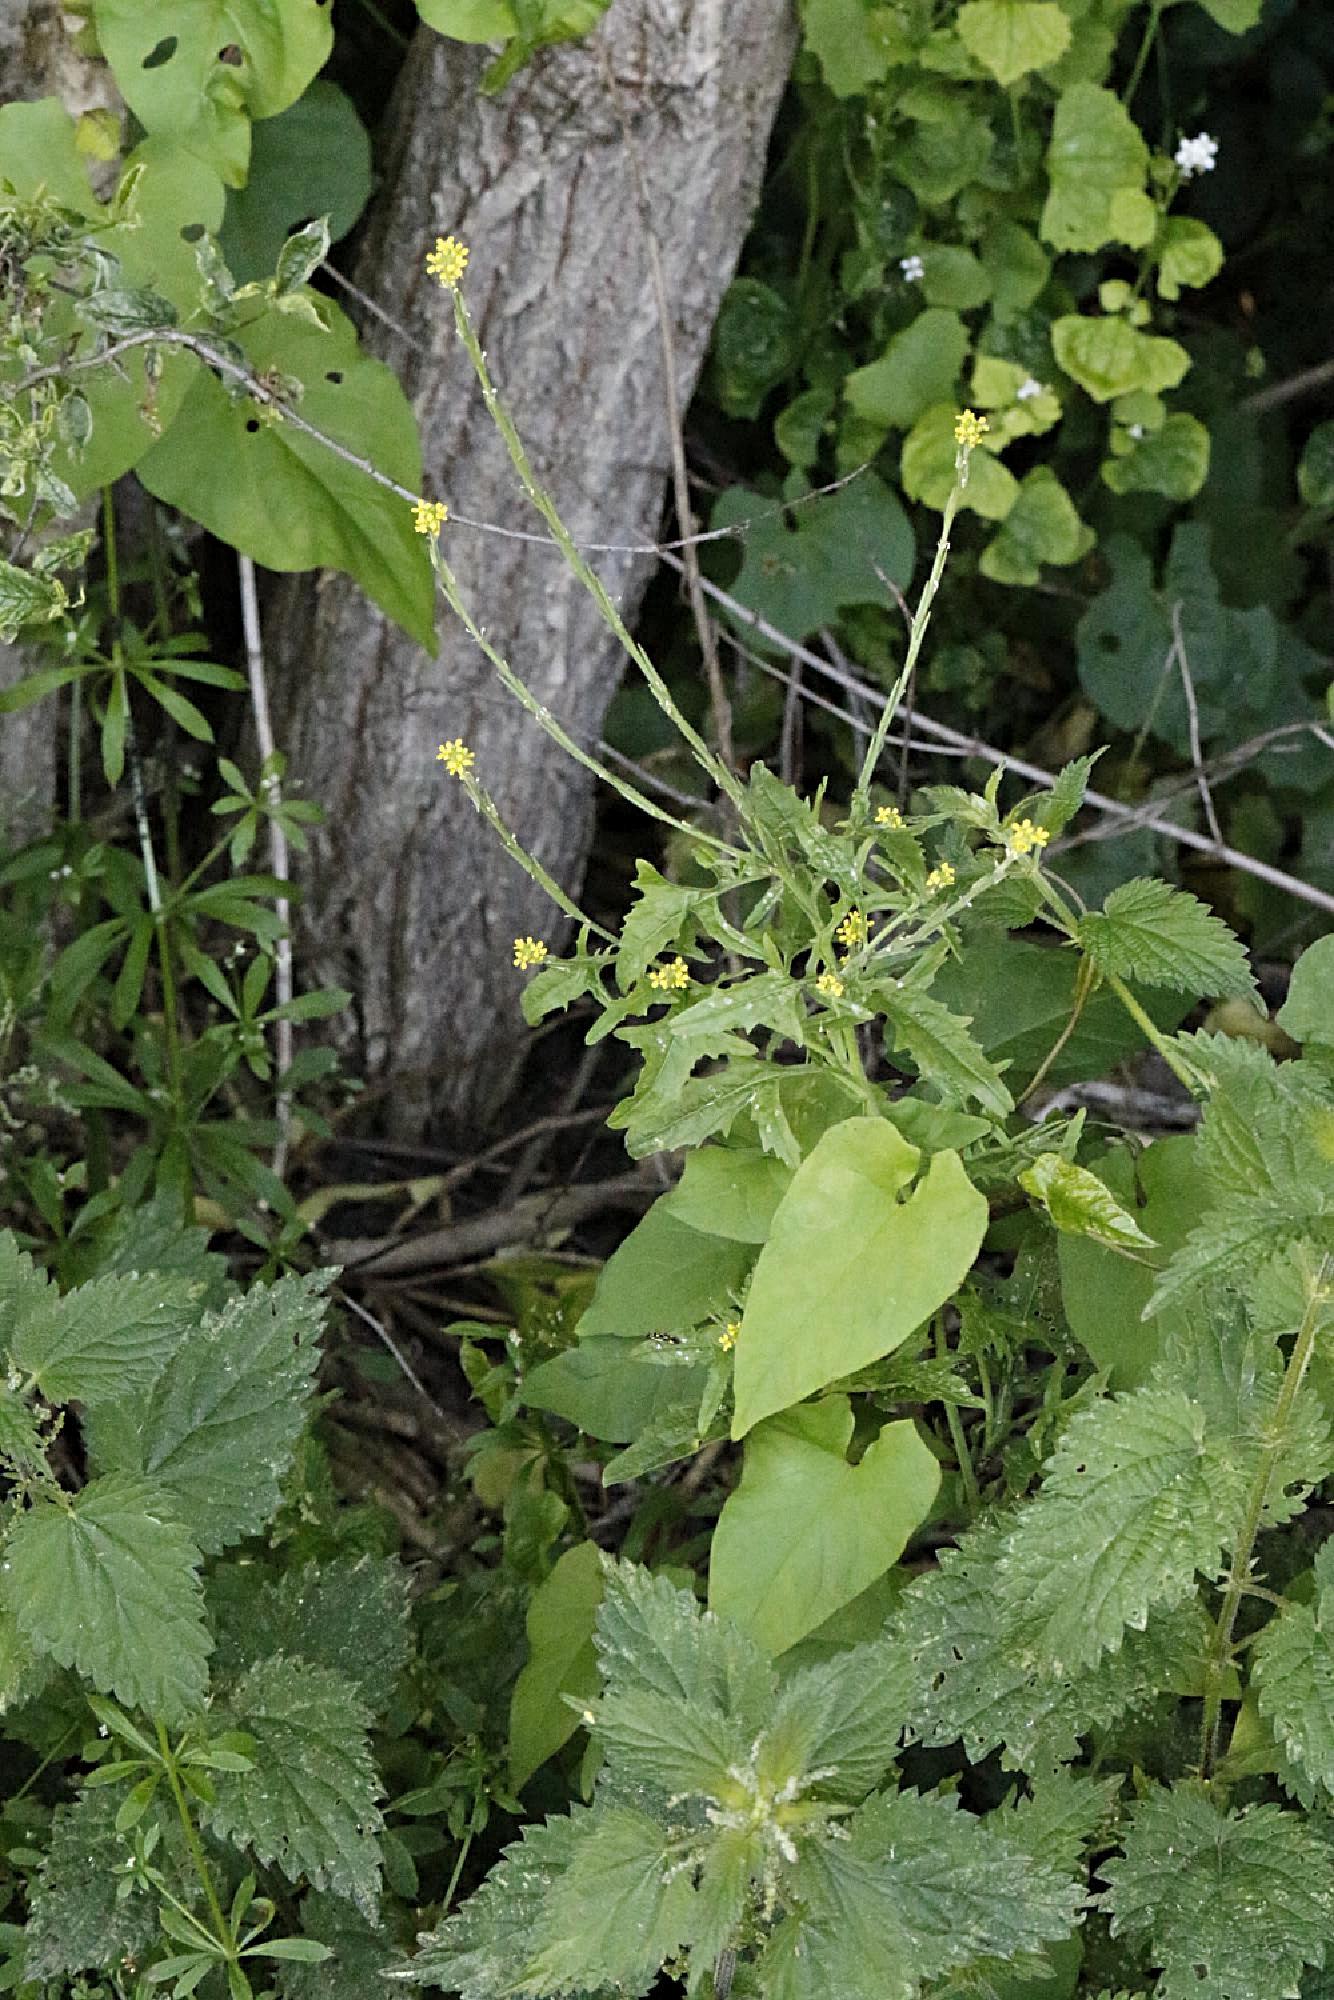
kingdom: Plantae
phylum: Tracheophyta
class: Magnoliopsida
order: Brassicales
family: Brassicaceae
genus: Sisymbrium
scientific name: Sisymbrium officinale
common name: Hedge mustard
